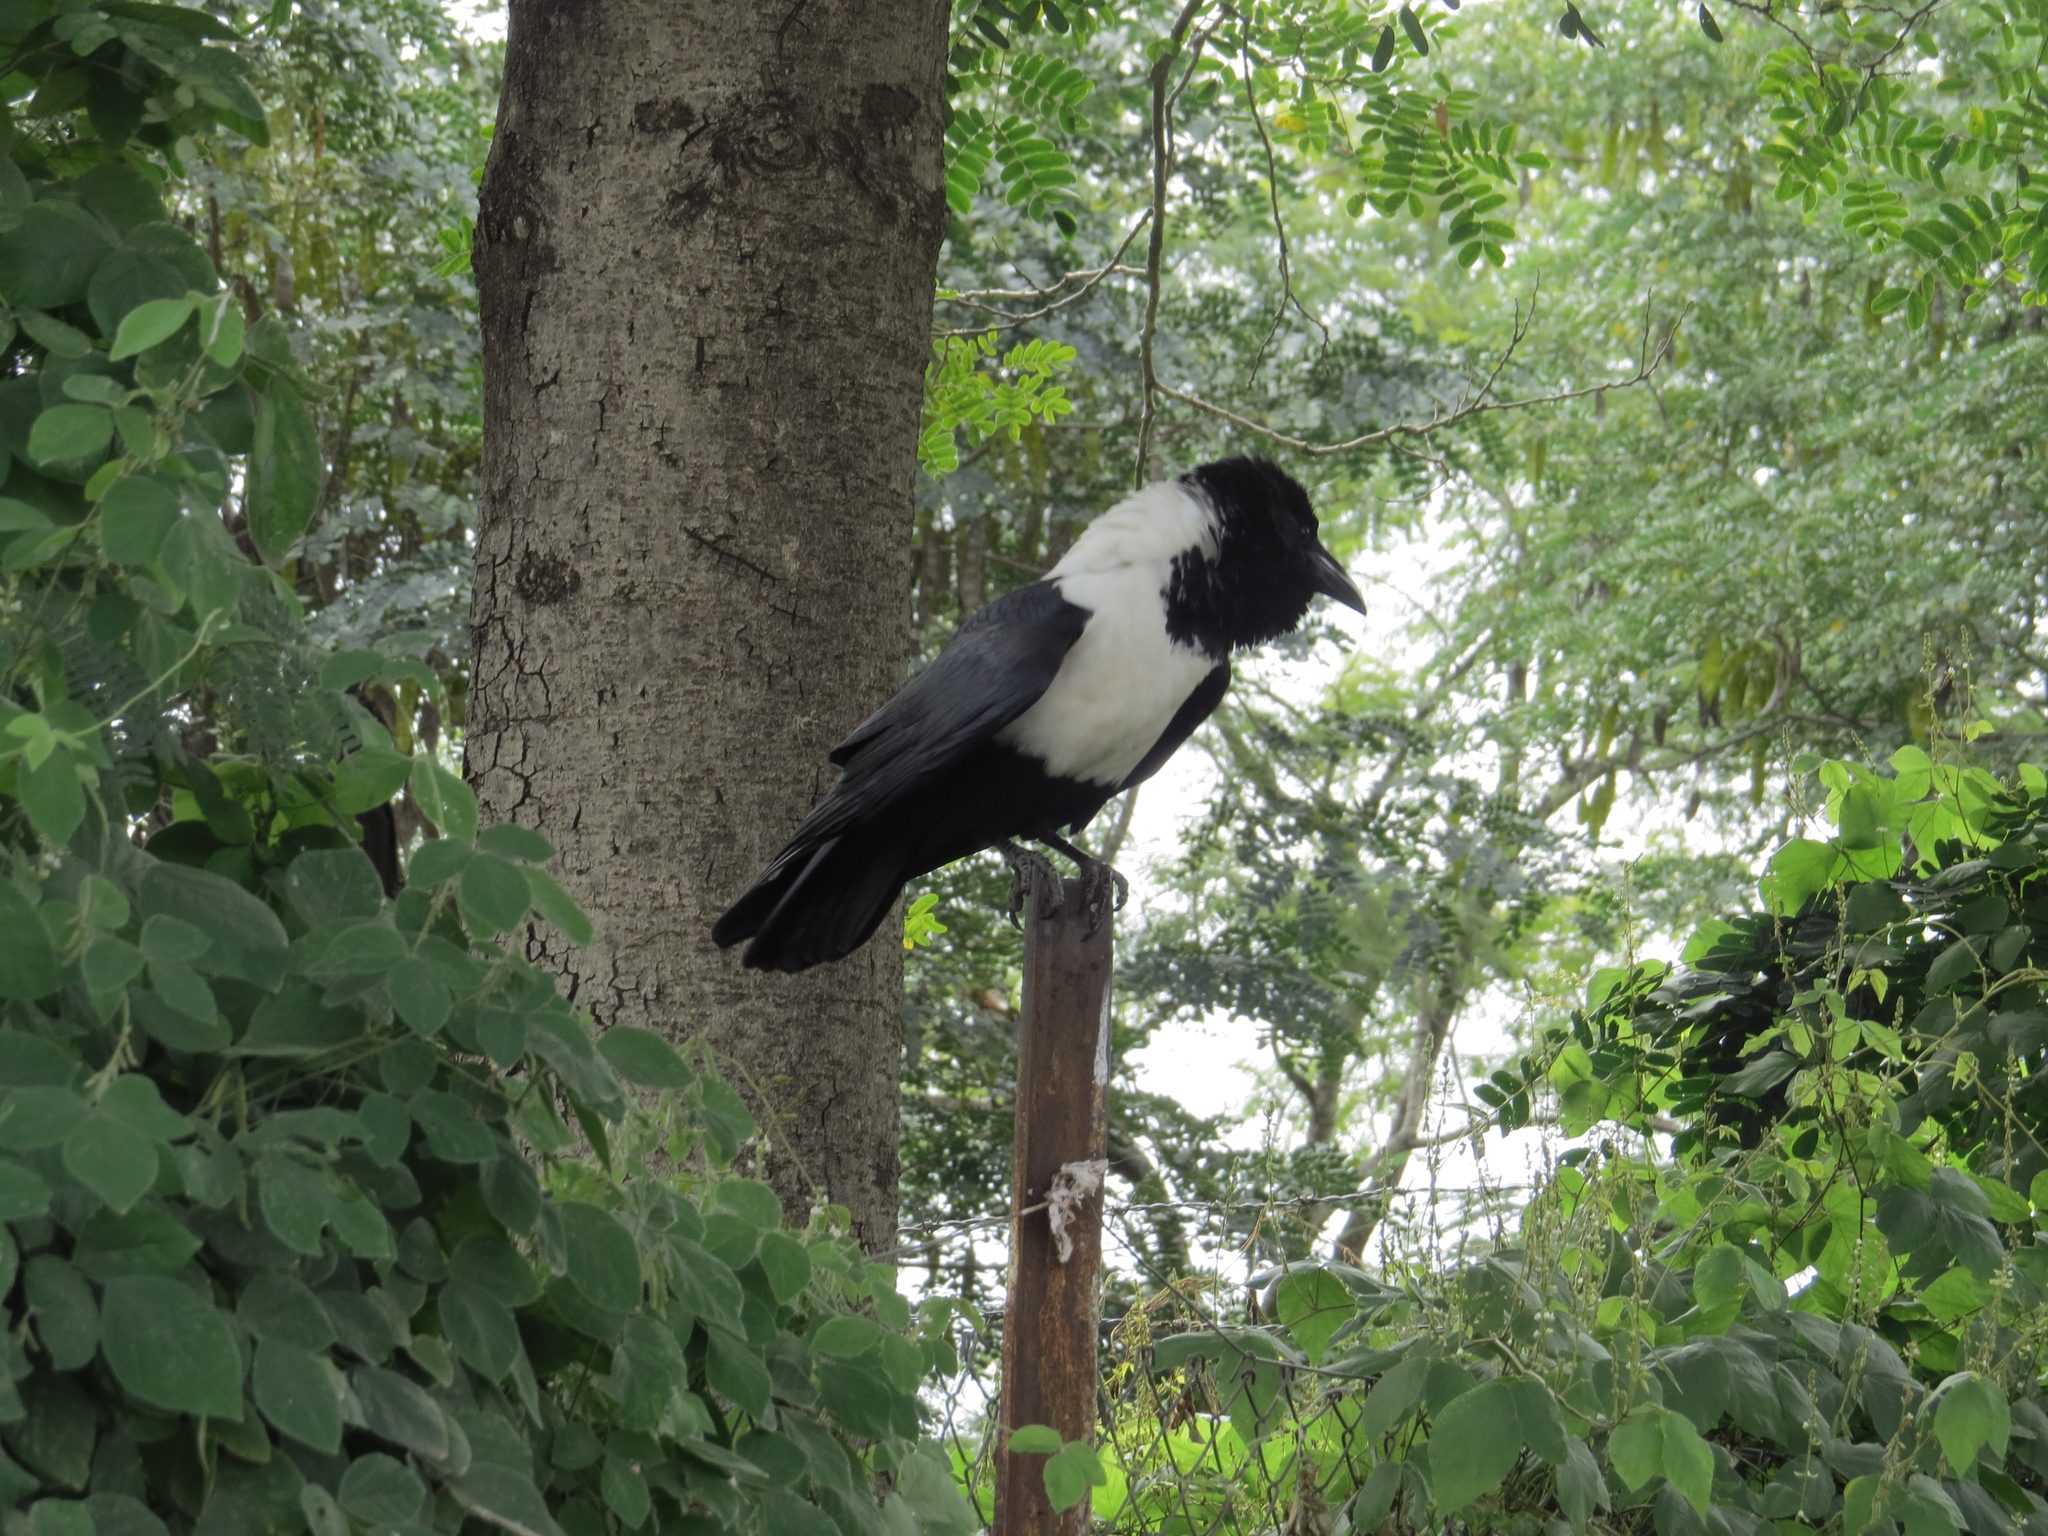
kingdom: Animalia
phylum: Chordata
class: Aves
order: Passeriformes
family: Corvidae
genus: Corvus
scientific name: Corvus albus
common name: Pied crow
